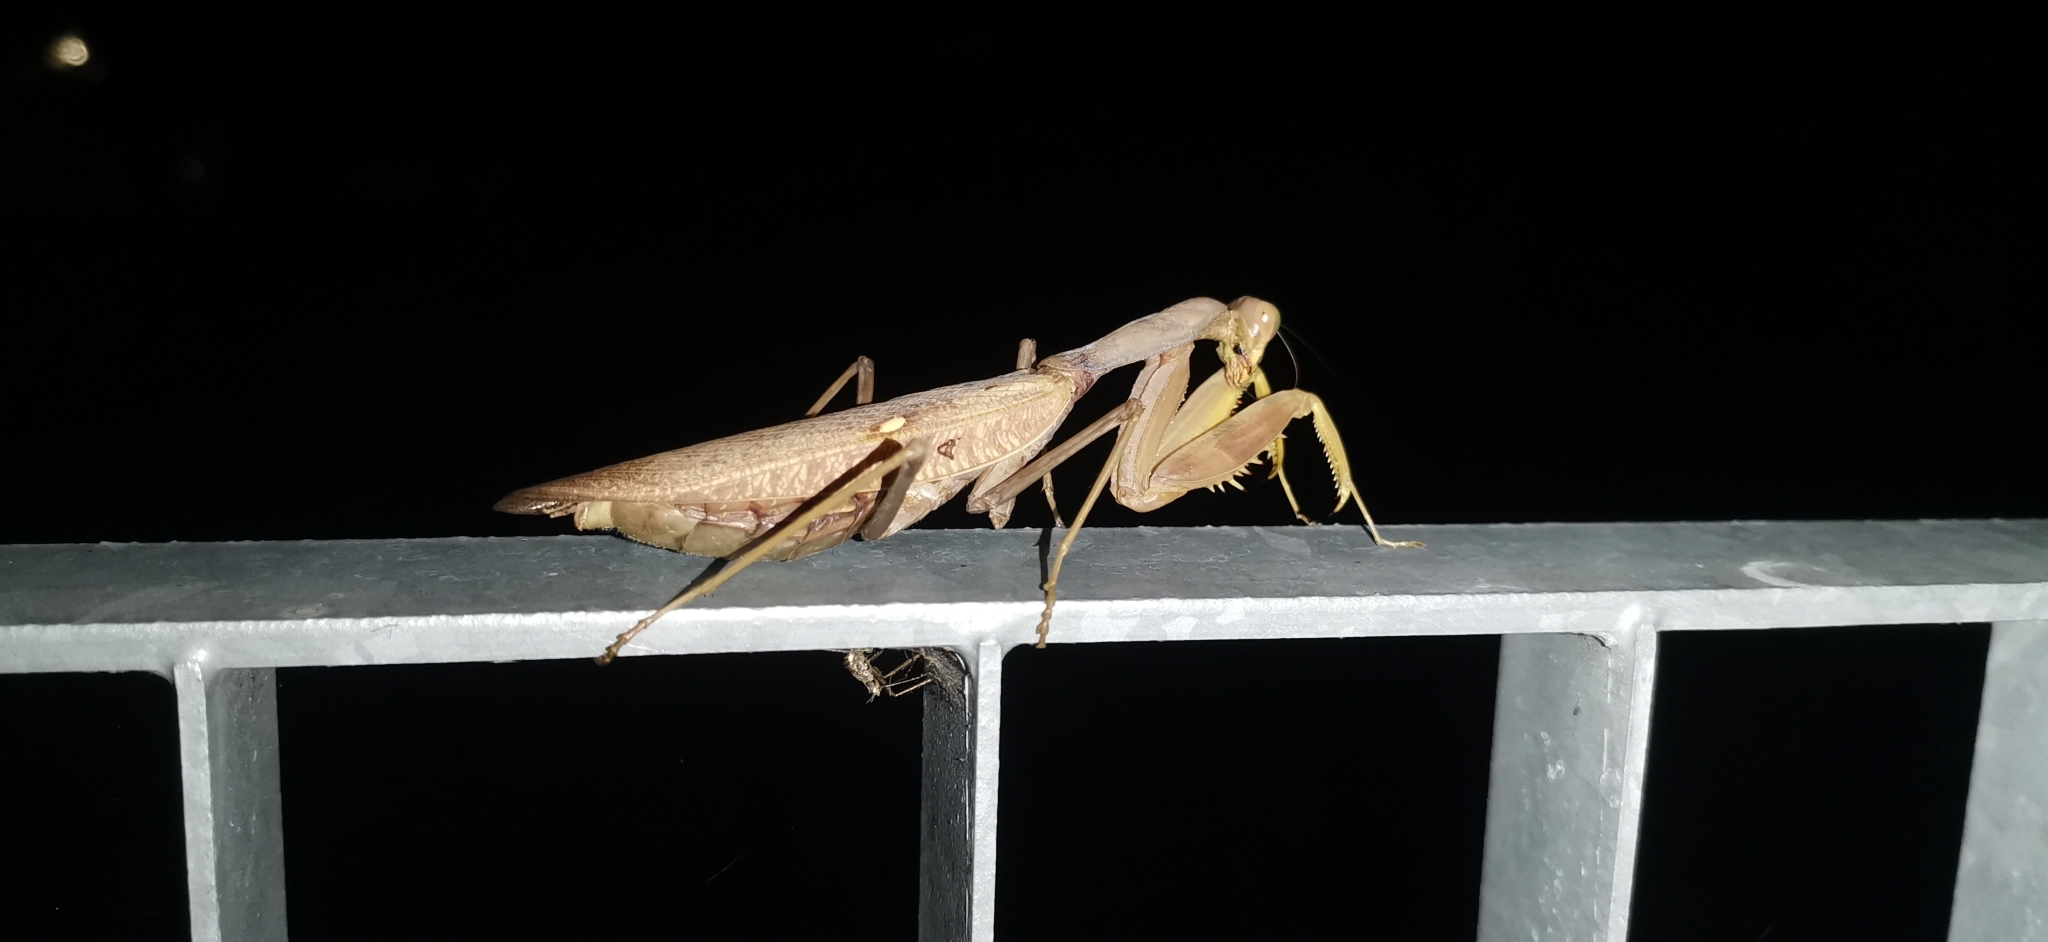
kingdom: Animalia
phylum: Arthropoda
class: Insecta
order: Mantodea
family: Mantidae
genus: Hierodula
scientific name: Hierodula transcaucasica
